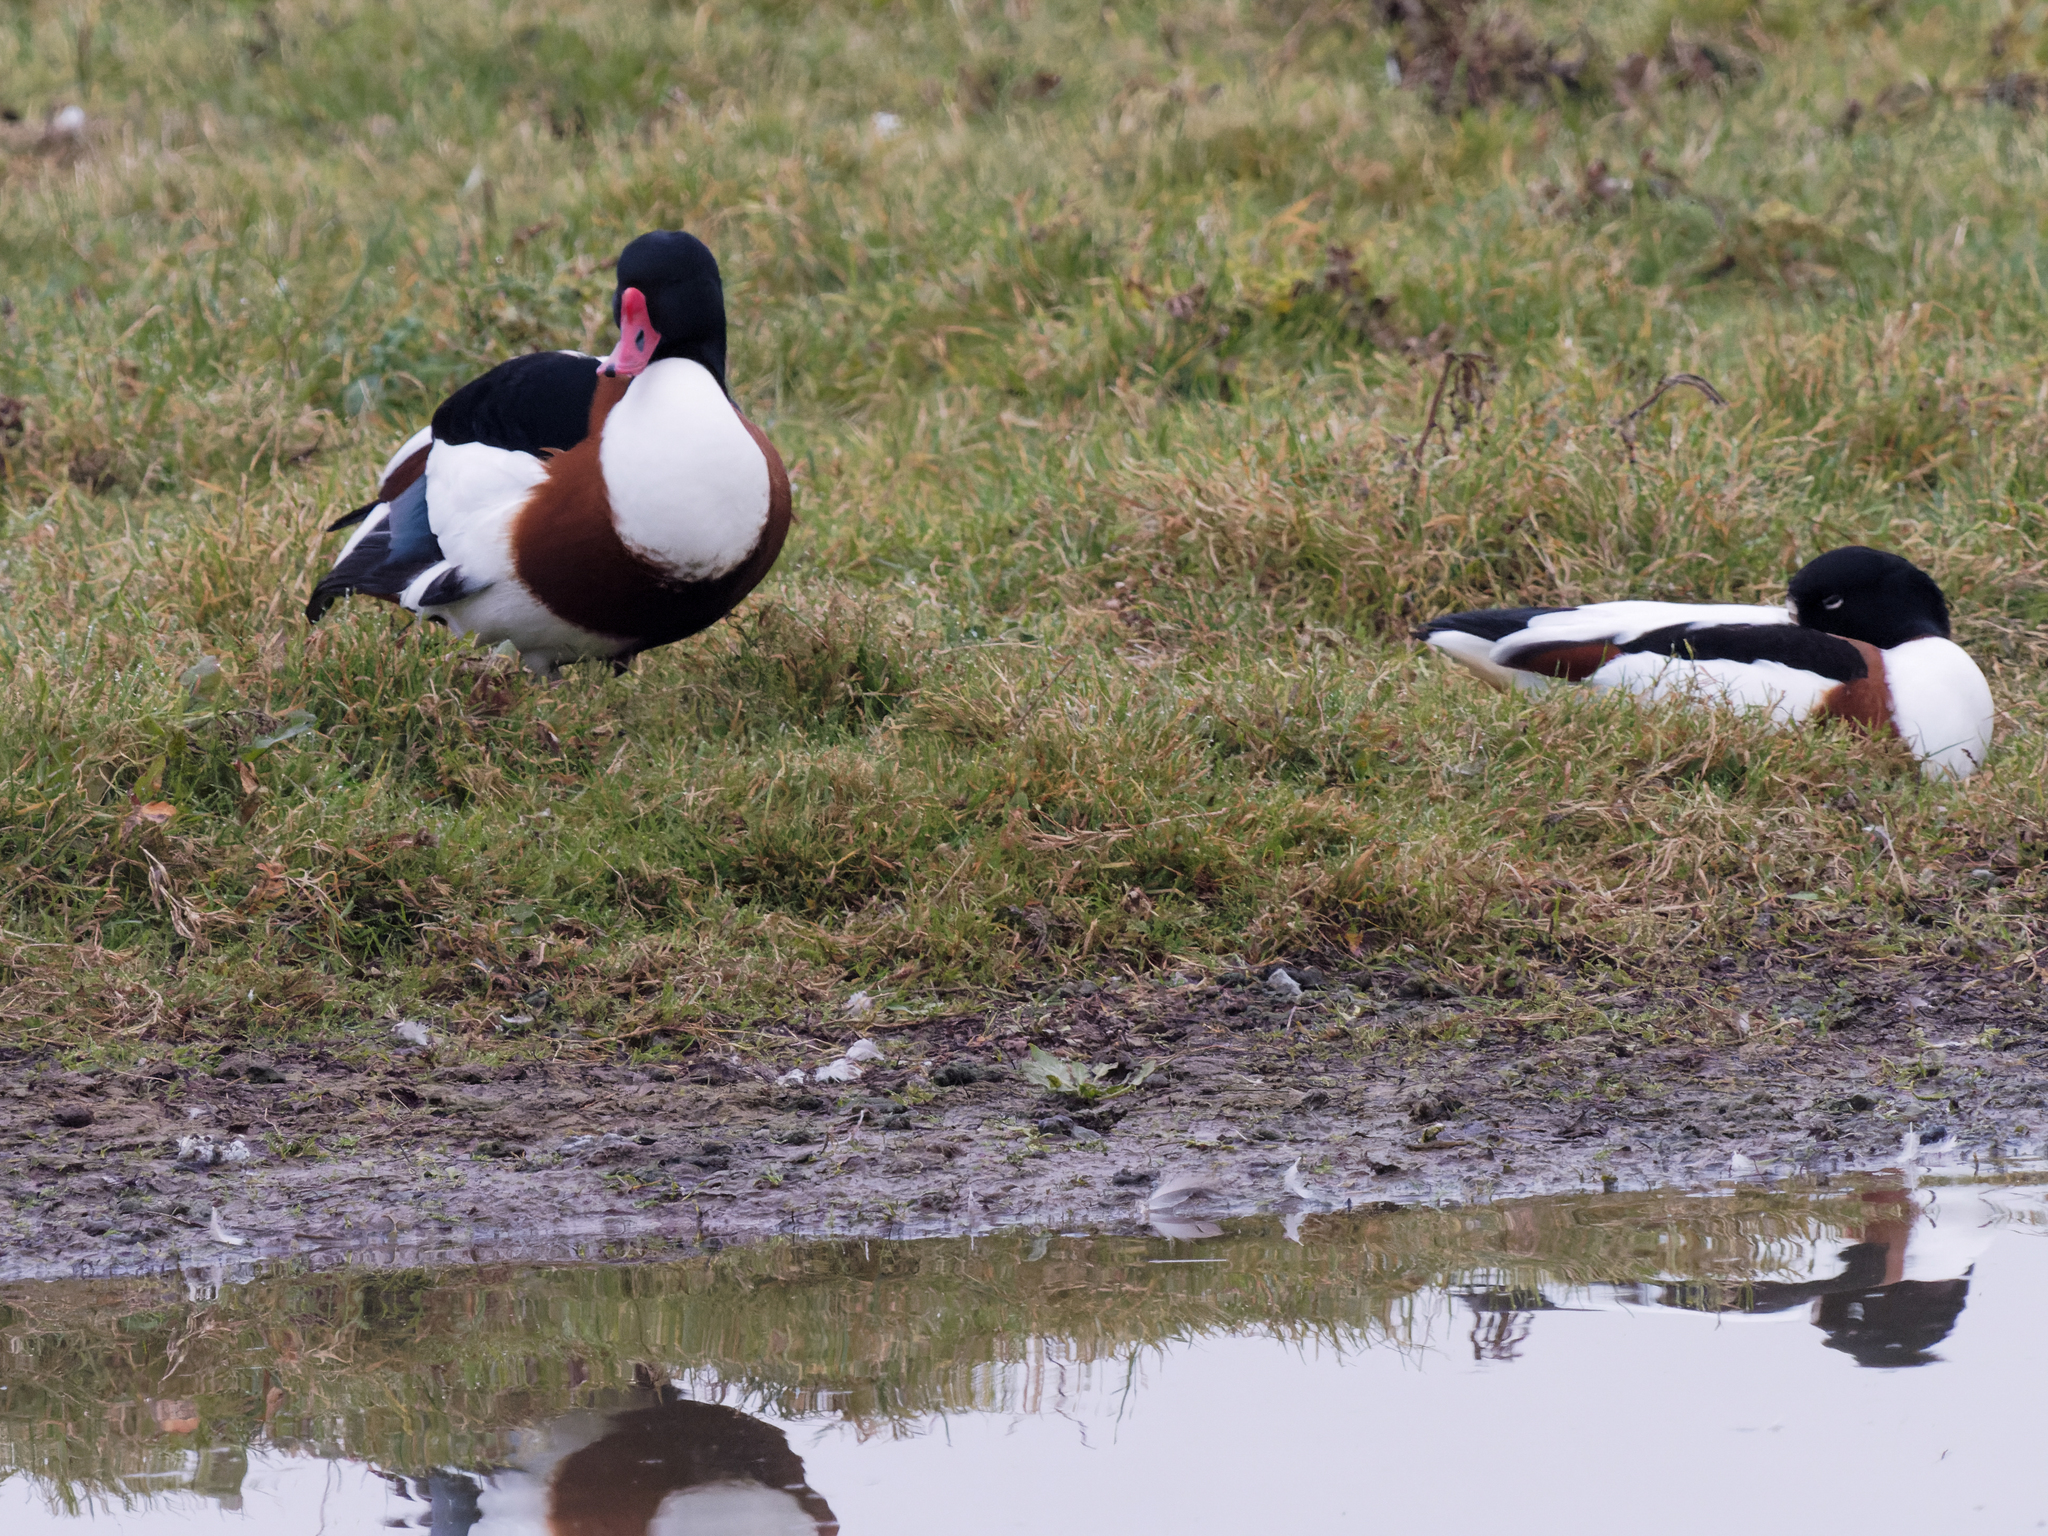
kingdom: Animalia
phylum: Chordata
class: Aves
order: Anseriformes
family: Anatidae
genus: Tadorna
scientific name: Tadorna tadorna
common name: Common shelduck
